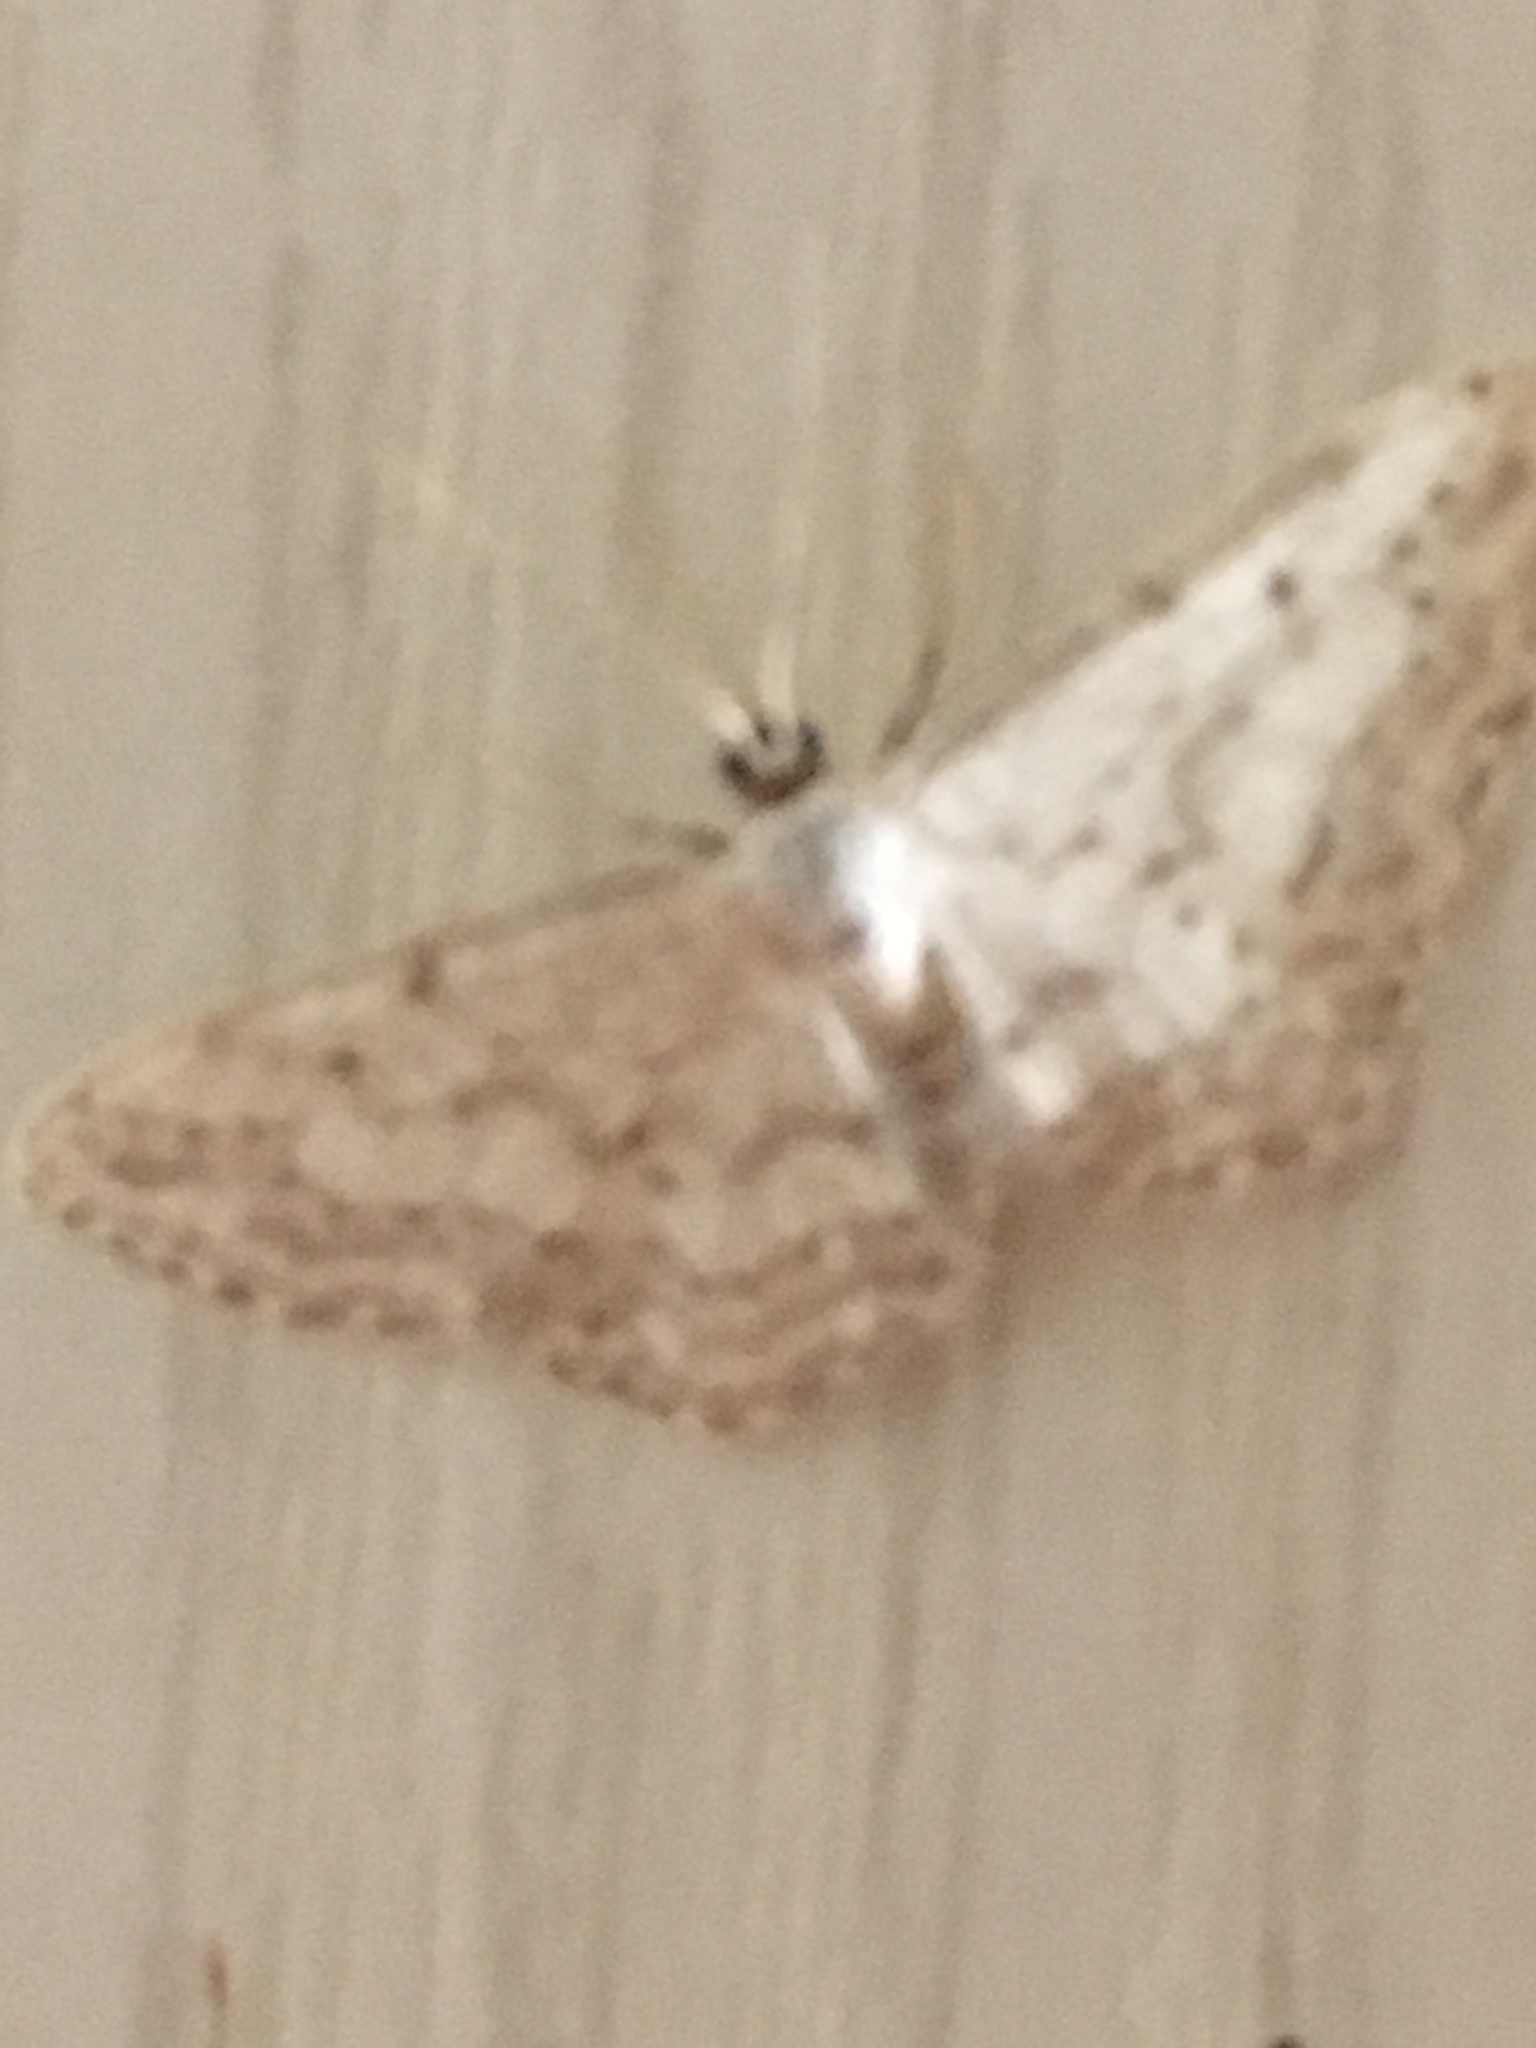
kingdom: Animalia
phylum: Arthropoda
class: Insecta
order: Lepidoptera
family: Geometridae
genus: Idaea
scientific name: Idaea seriata
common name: Small dusty wave
